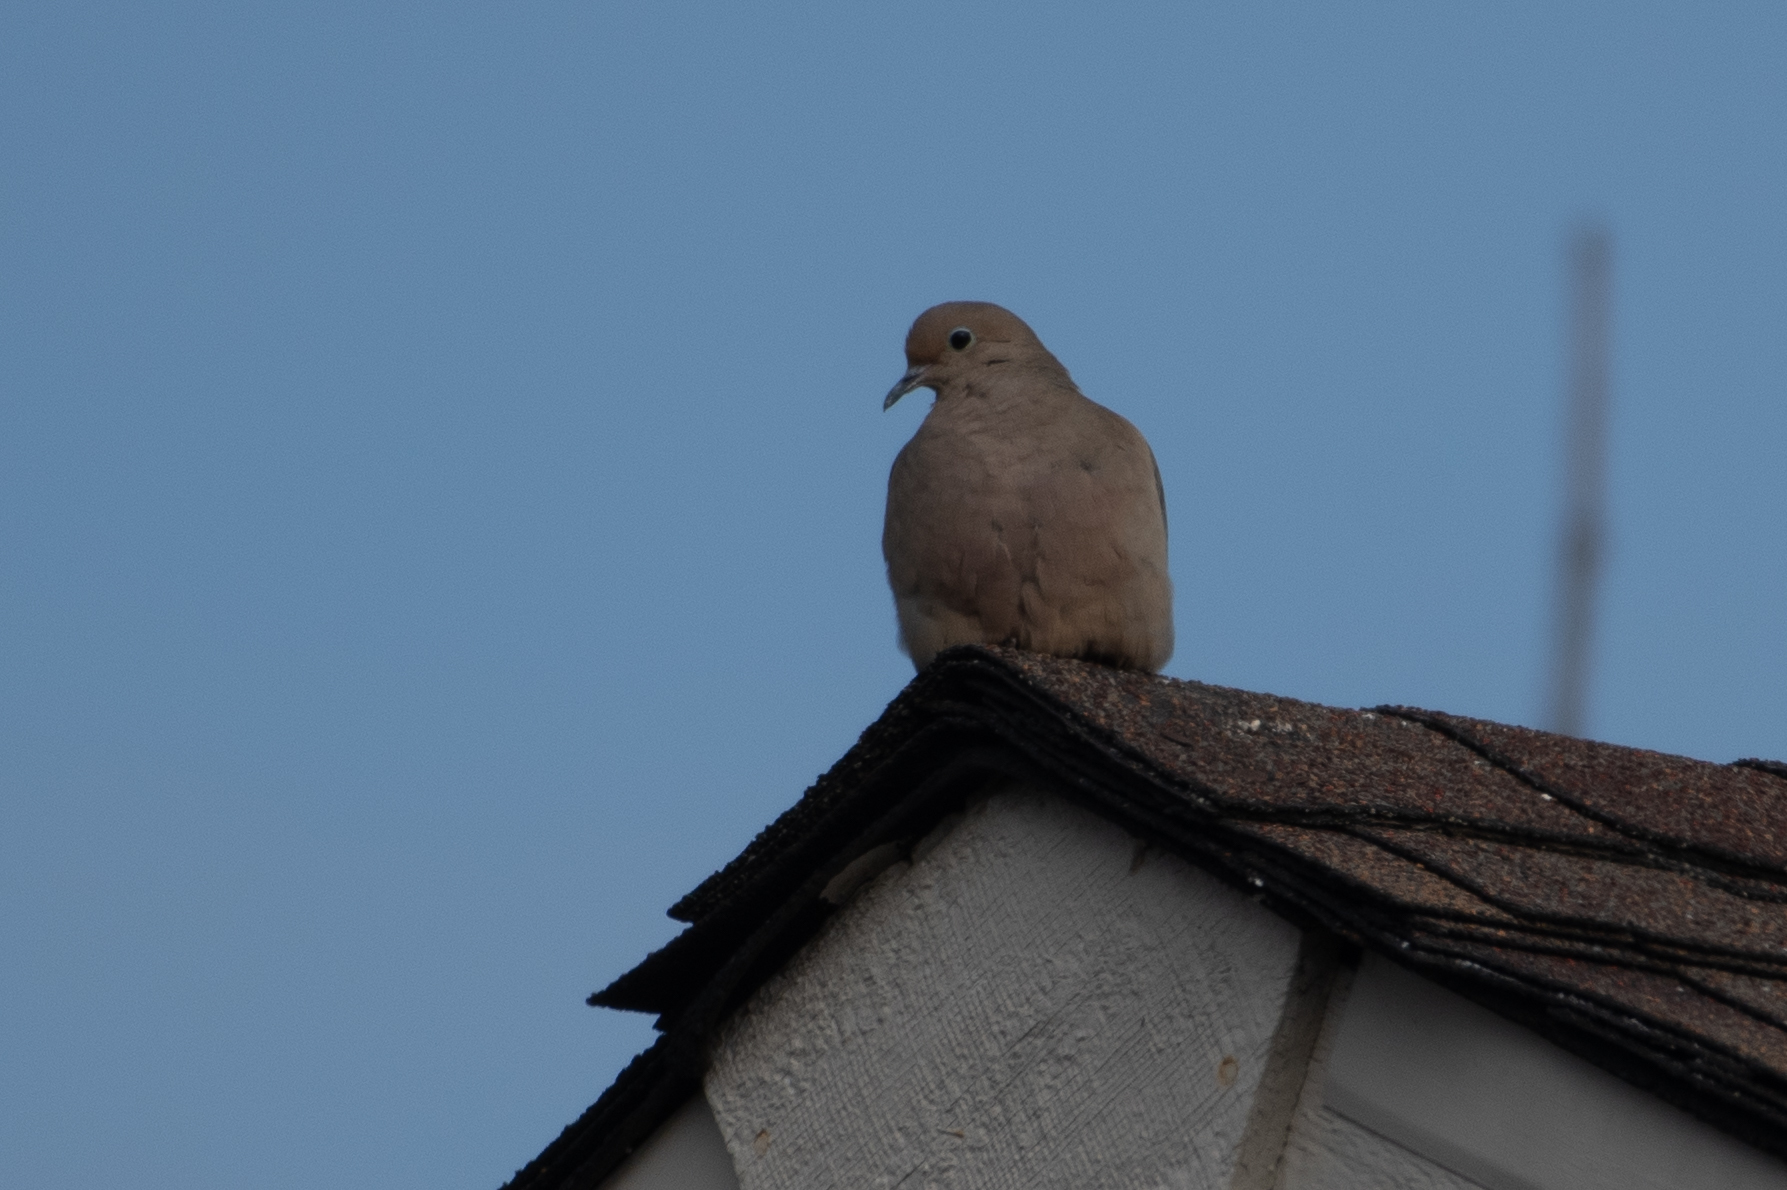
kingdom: Animalia
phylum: Chordata
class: Aves
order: Columbiformes
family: Columbidae
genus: Zenaida
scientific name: Zenaida macroura
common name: Mourning dove
